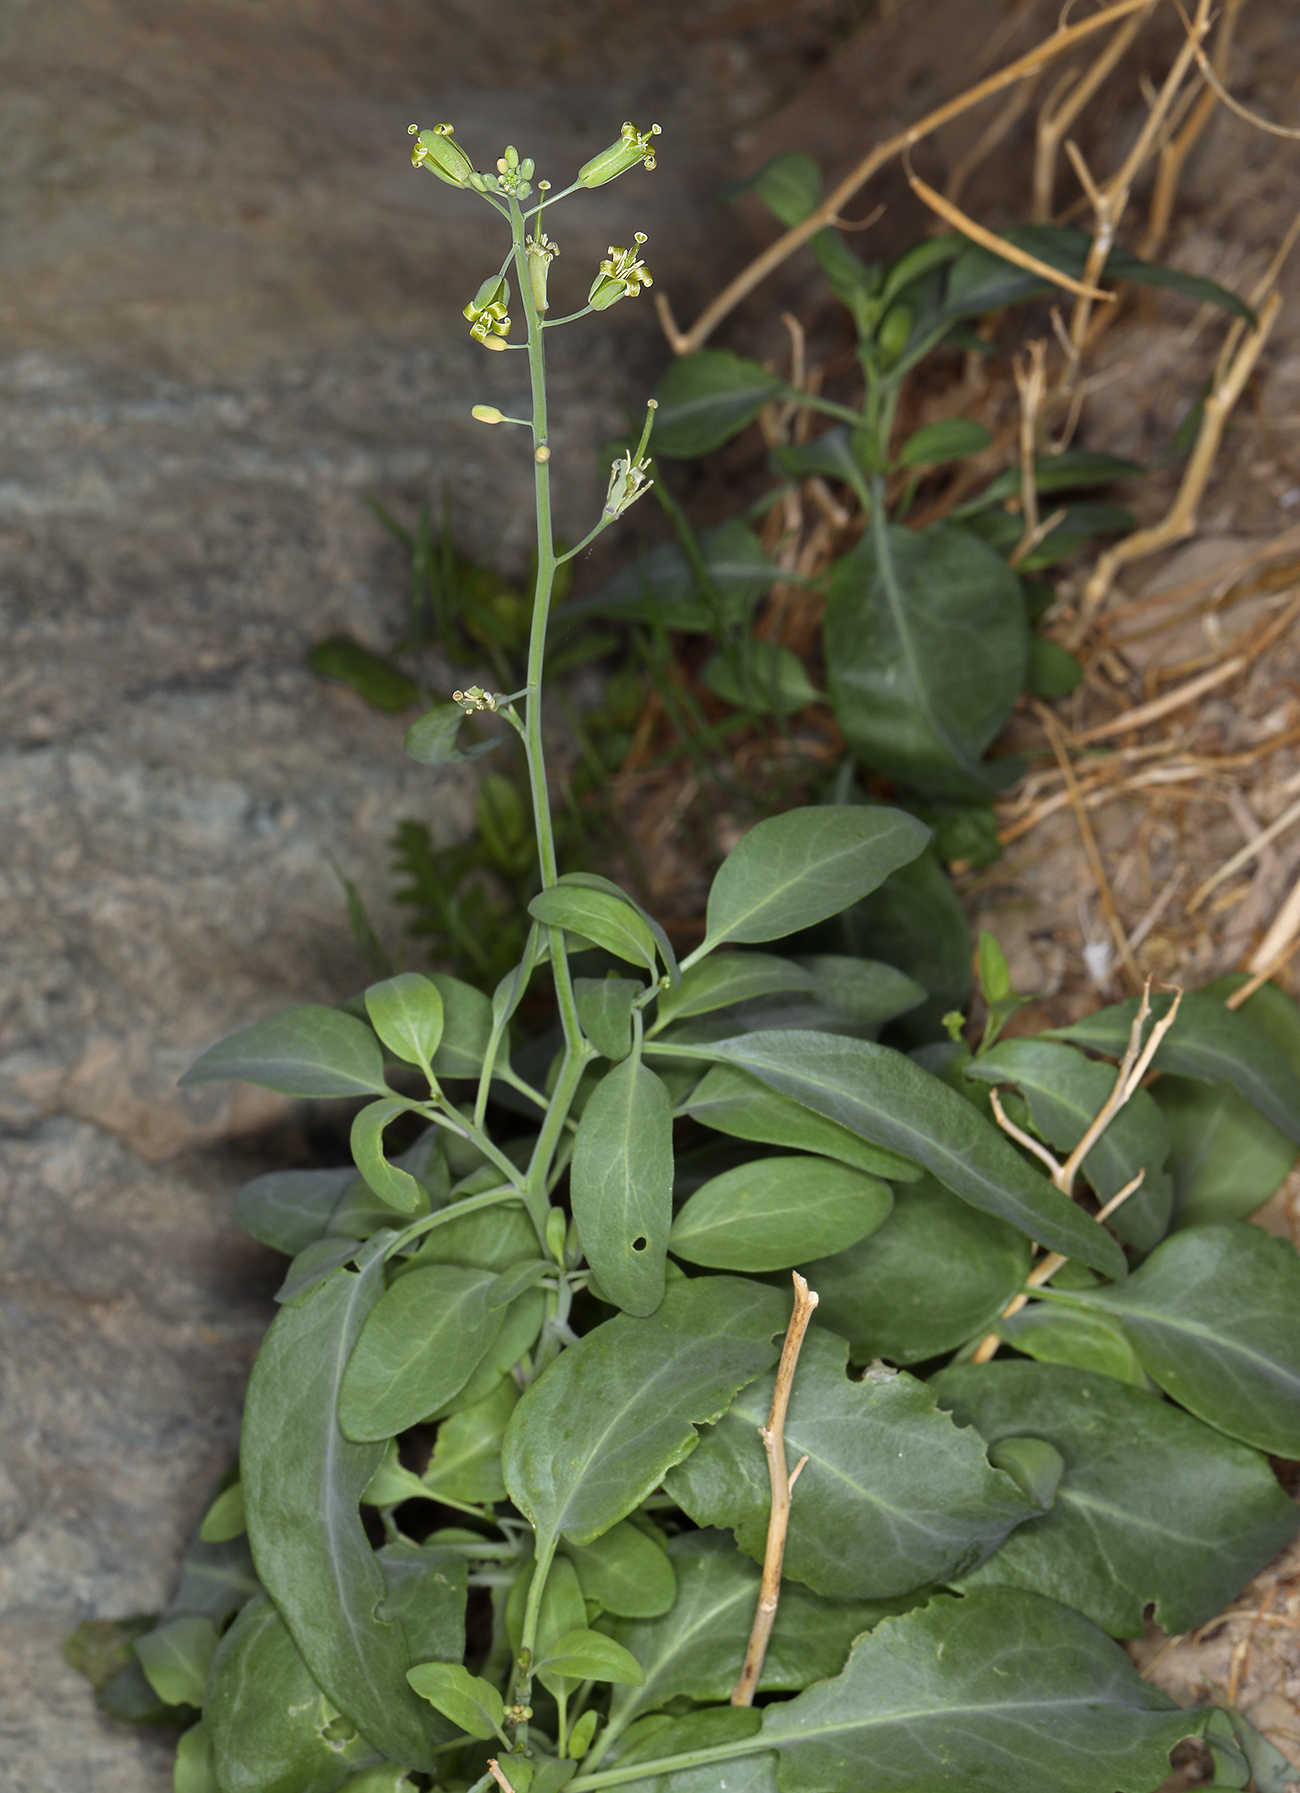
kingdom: Plantae
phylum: Tracheophyta
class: Magnoliopsida
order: Brassicales
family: Brassicaceae
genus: Streptanthus
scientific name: Streptanthus glaucus
